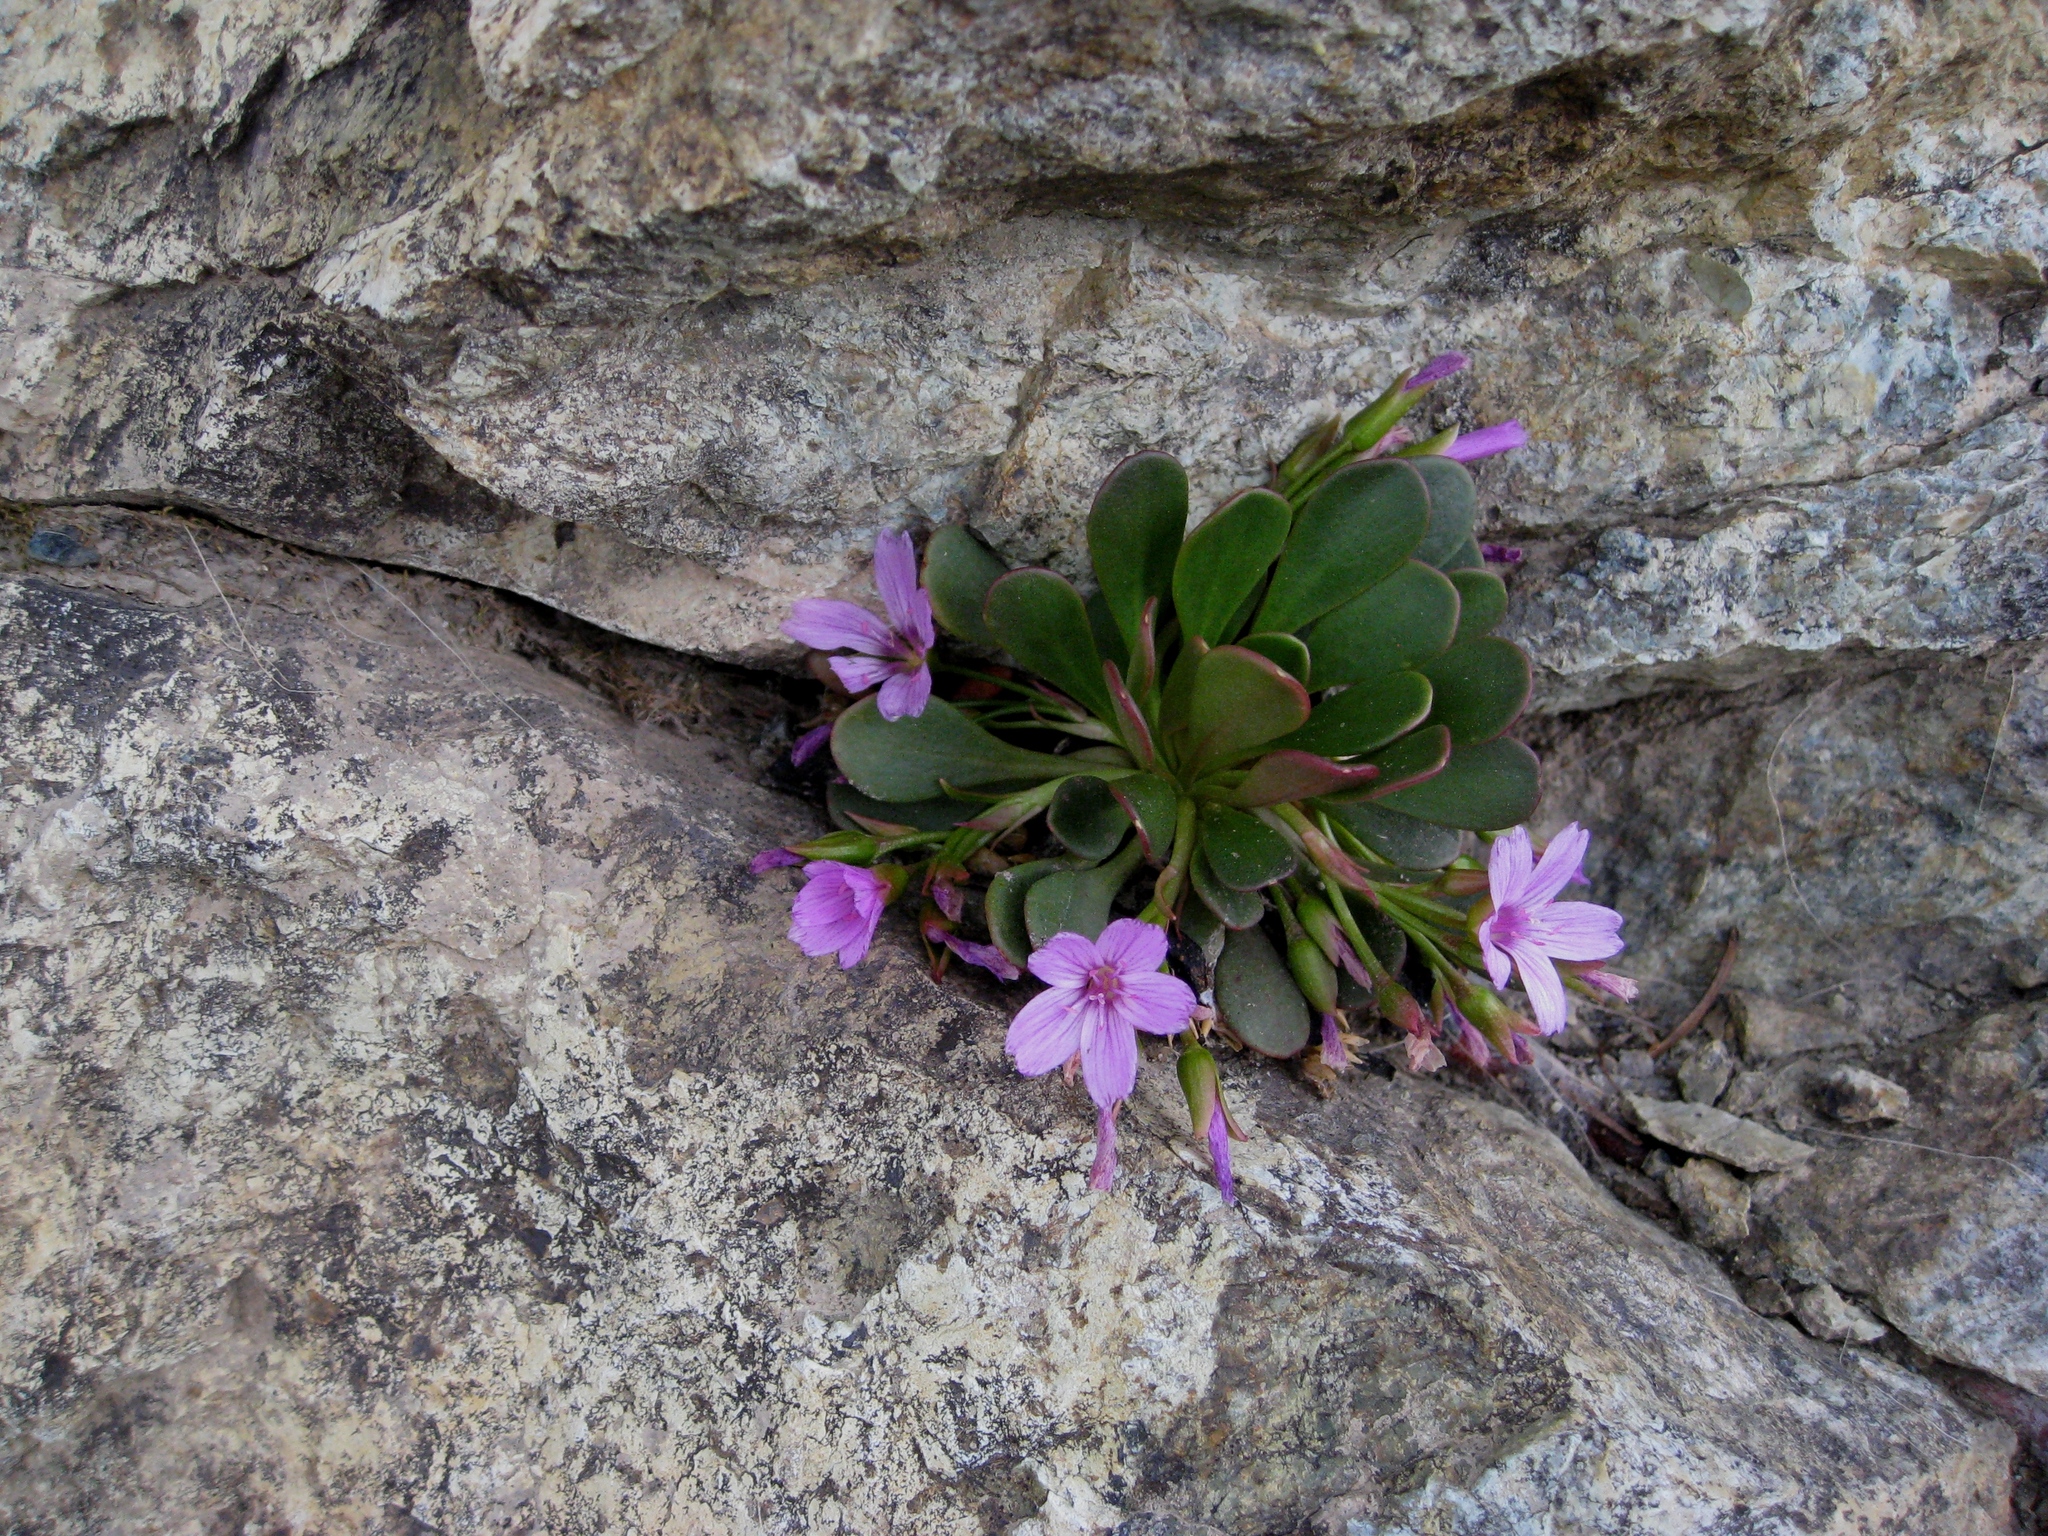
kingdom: Plantae
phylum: Tracheophyta
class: Magnoliopsida
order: Caryophyllales
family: Montiaceae
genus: Claytonia
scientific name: Claytonia megarhiza
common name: Alpine spring beauty
